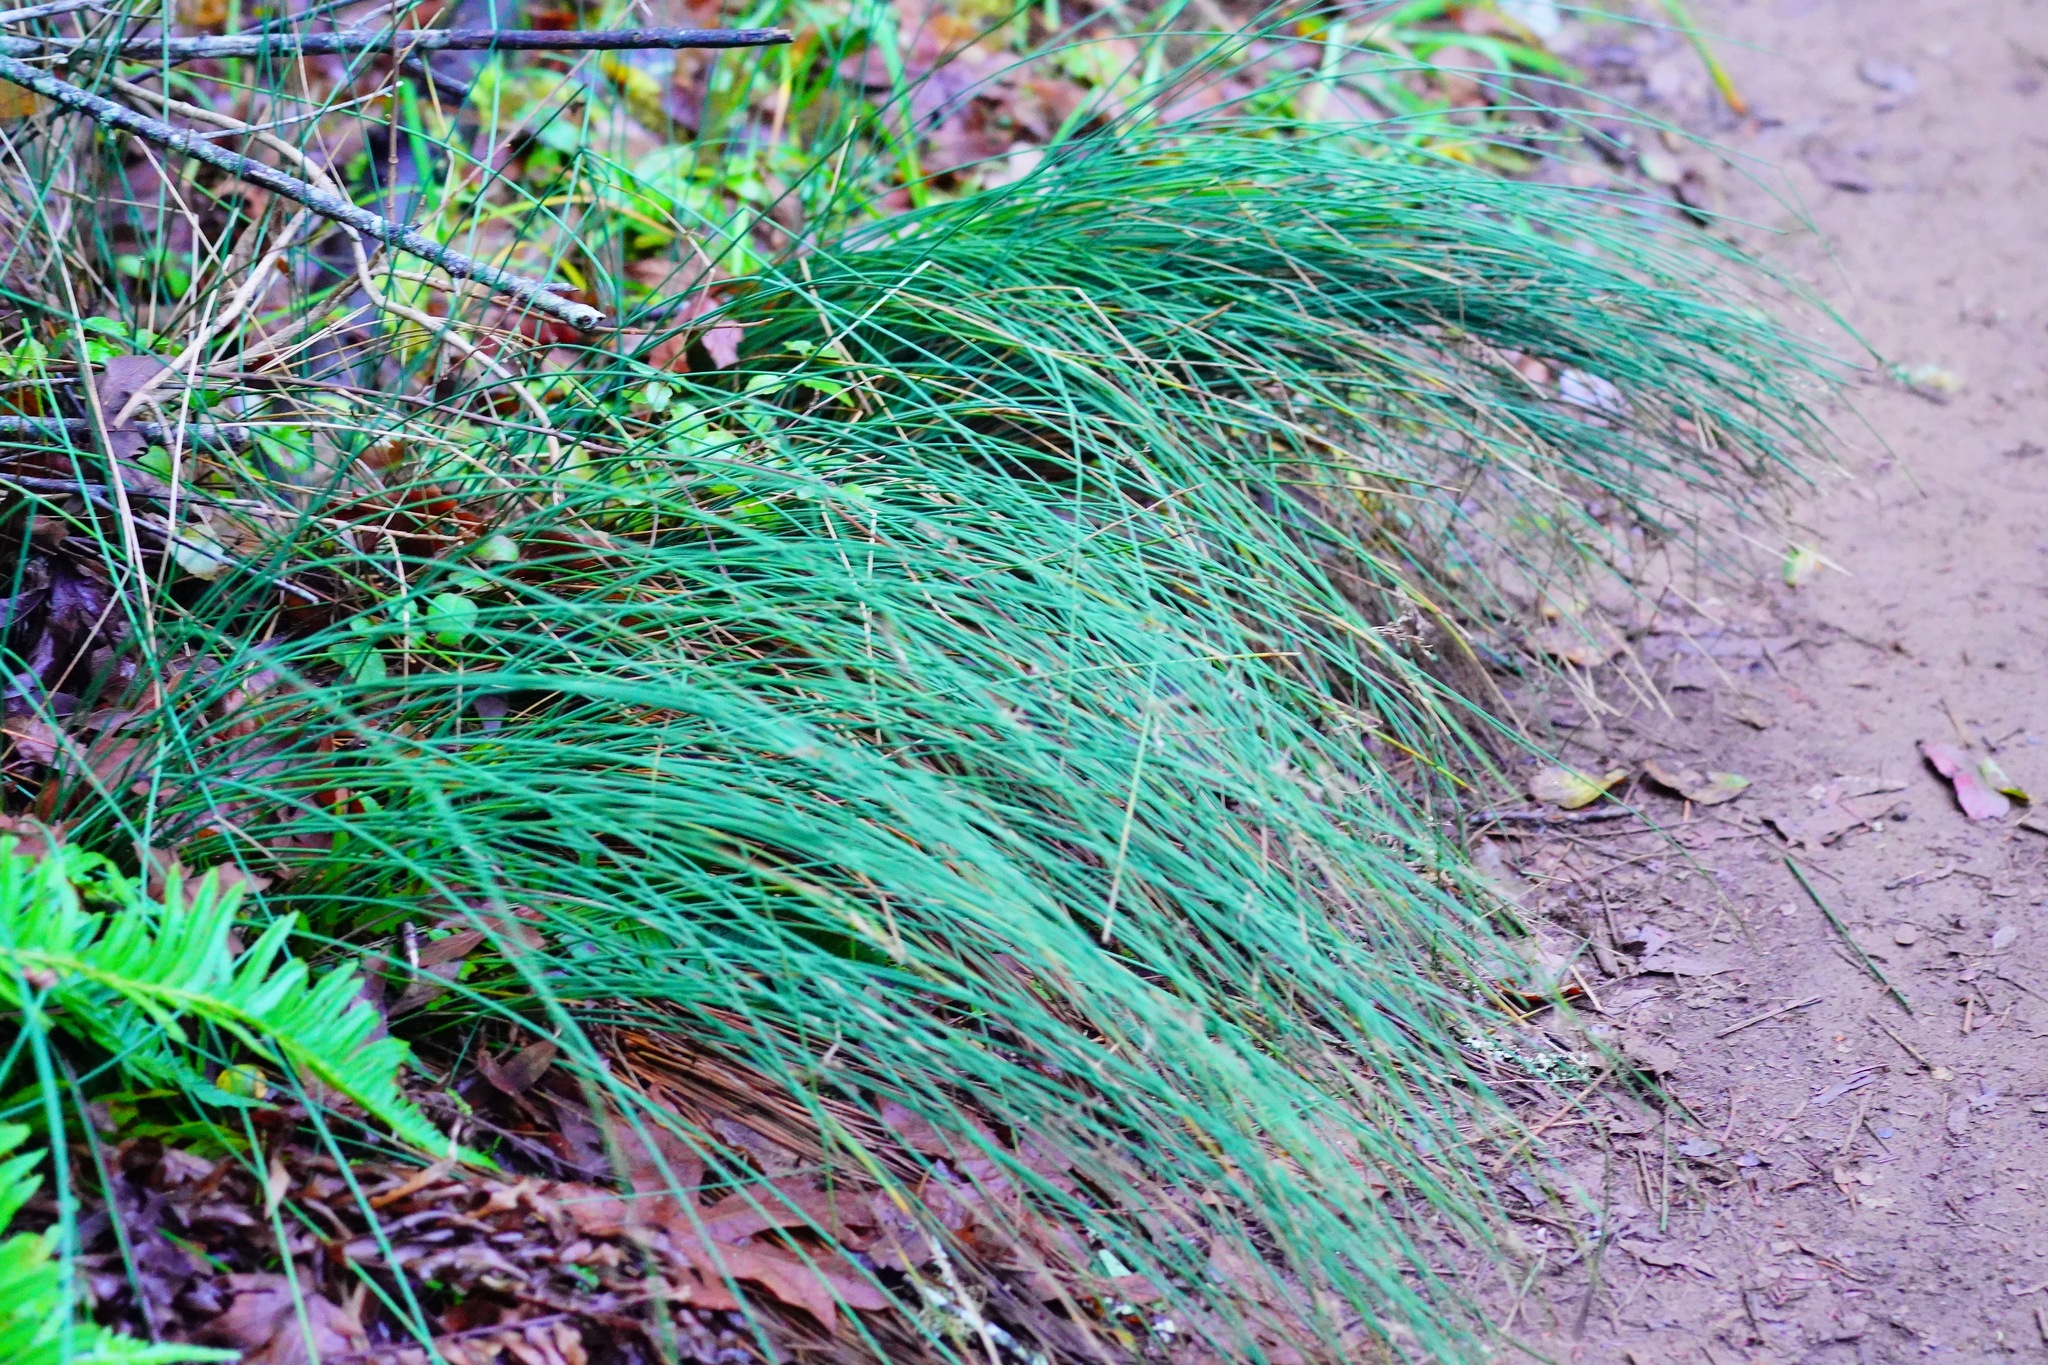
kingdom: Plantae
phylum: Tracheophyta
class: Liliopsida
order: Poales
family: Juncaceae
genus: Juncus
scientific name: Juncus patens
